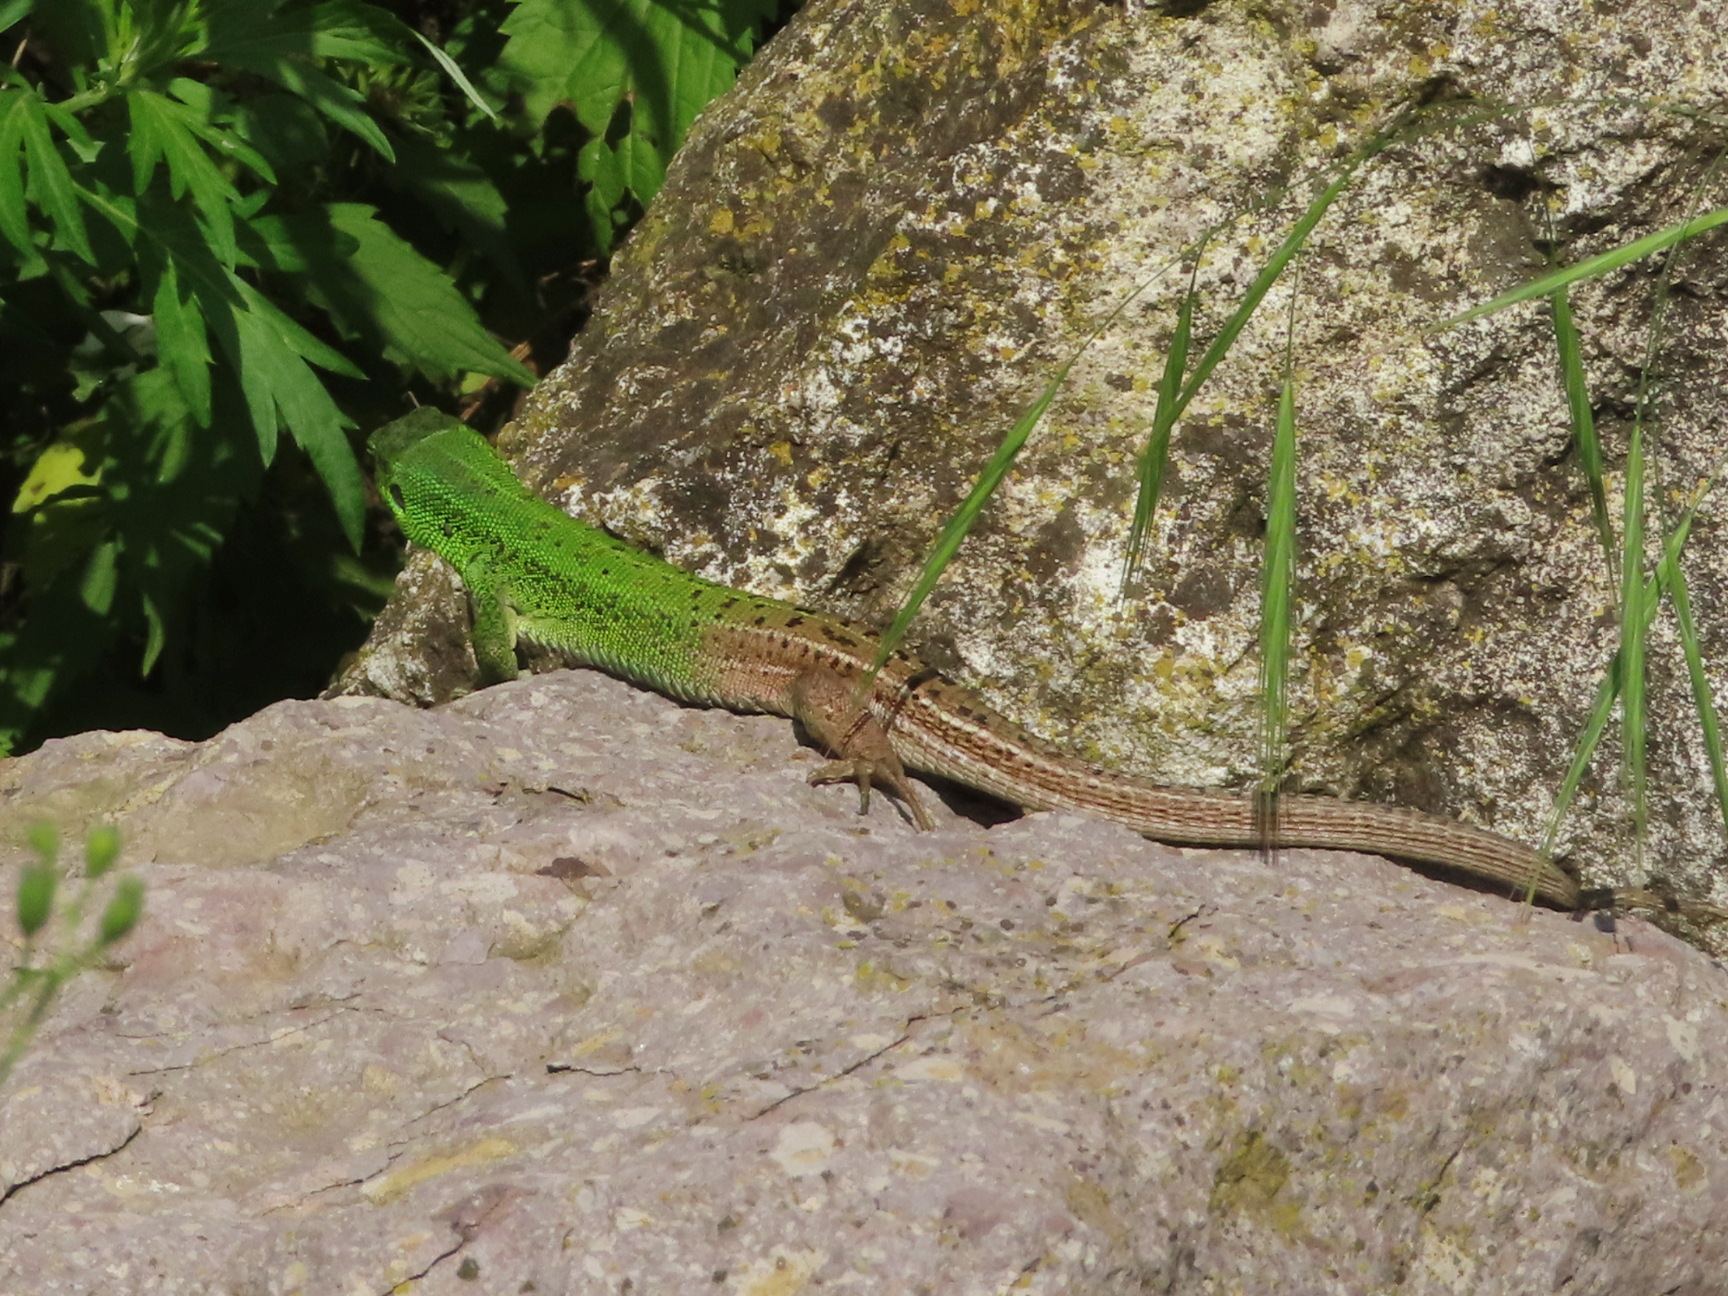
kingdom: Animalia
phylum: Chordata
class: Squamata
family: Lacertidae
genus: Lacerta
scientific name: Lacerta strigata
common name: Caspian green lizard
